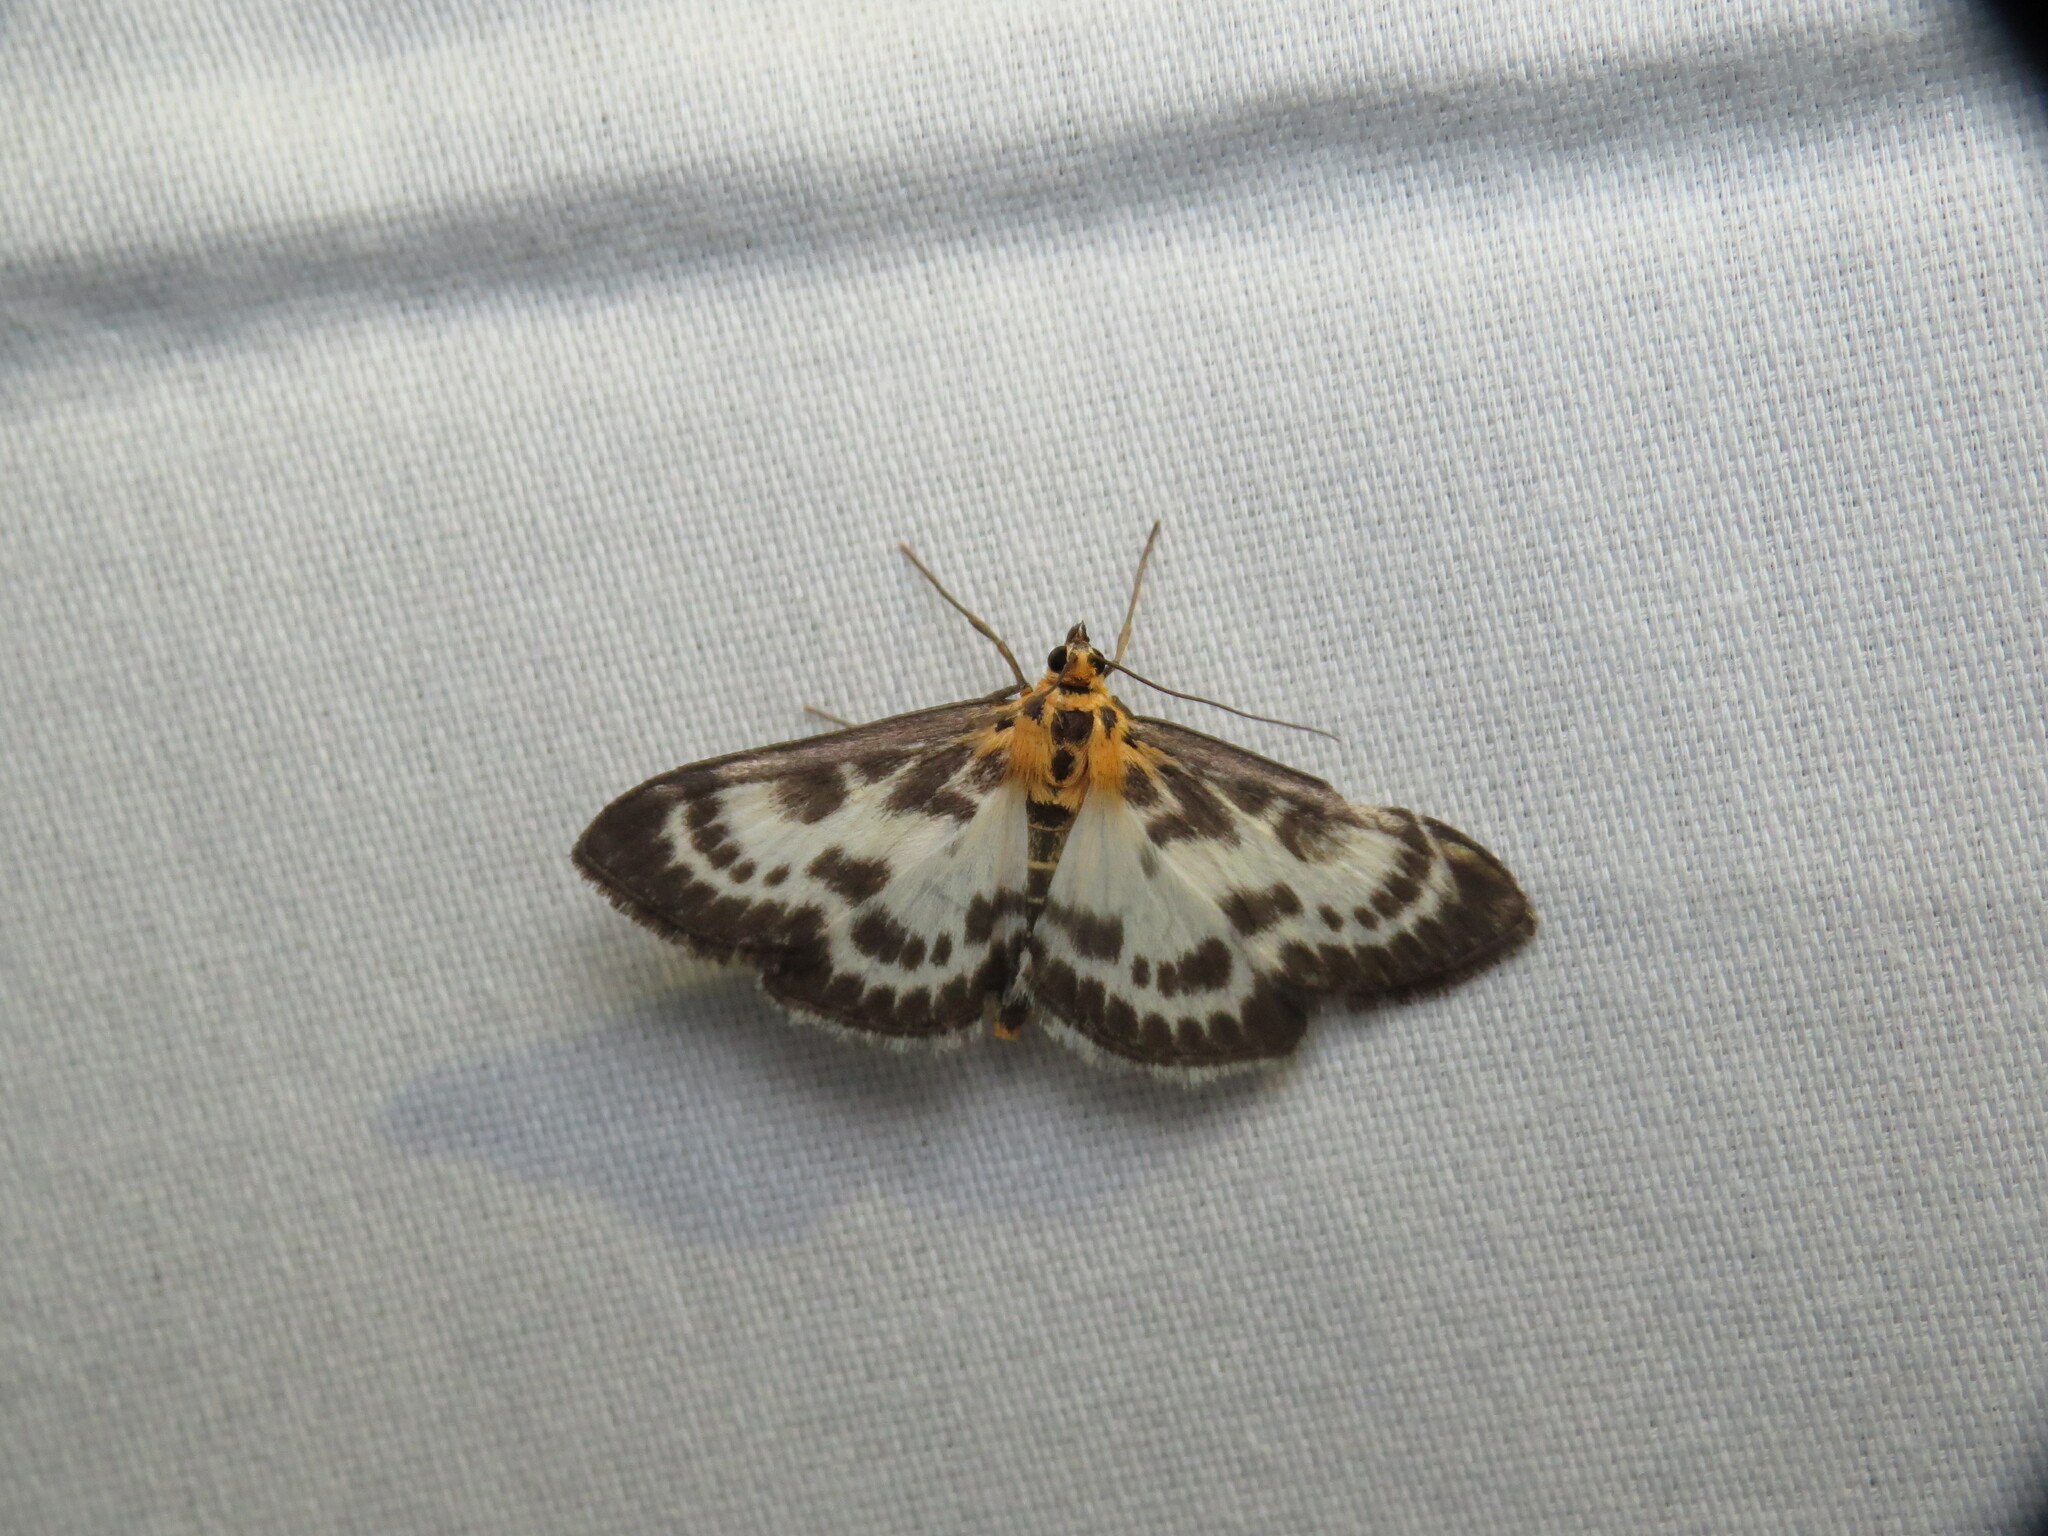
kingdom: Animalia
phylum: Arthropoda
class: Insecta
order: Lepidoptera
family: Crambidae
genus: Anania
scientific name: Anania hortulata
